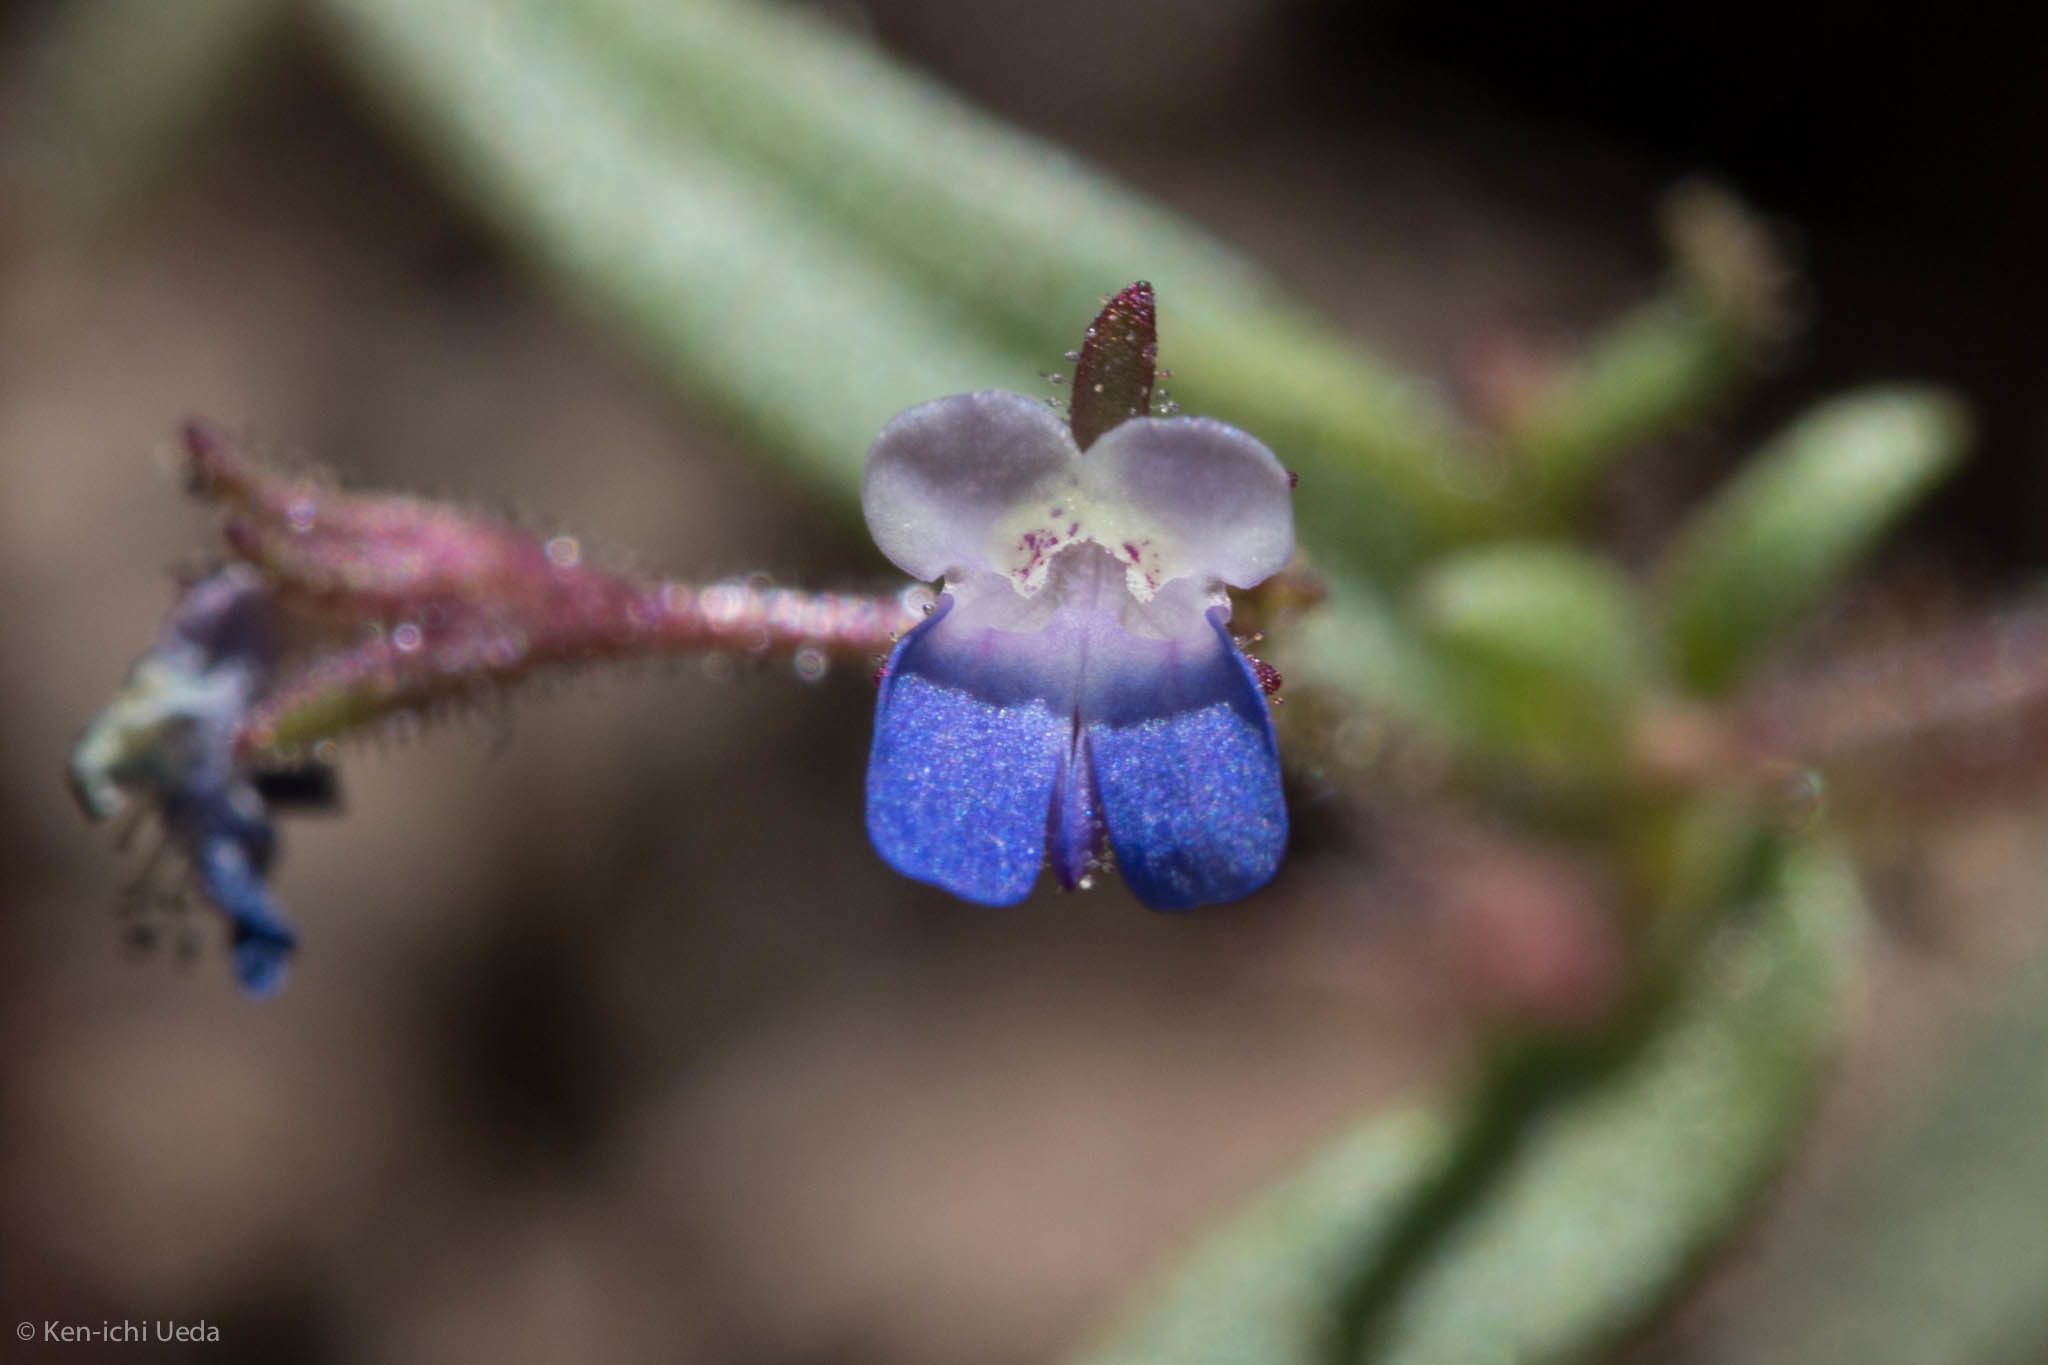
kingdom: Plantae
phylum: Tracheophyta
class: Magnoliopsida
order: Lamiales
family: Plantaginaceae
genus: Collinsia
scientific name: Collinsia torreyi
